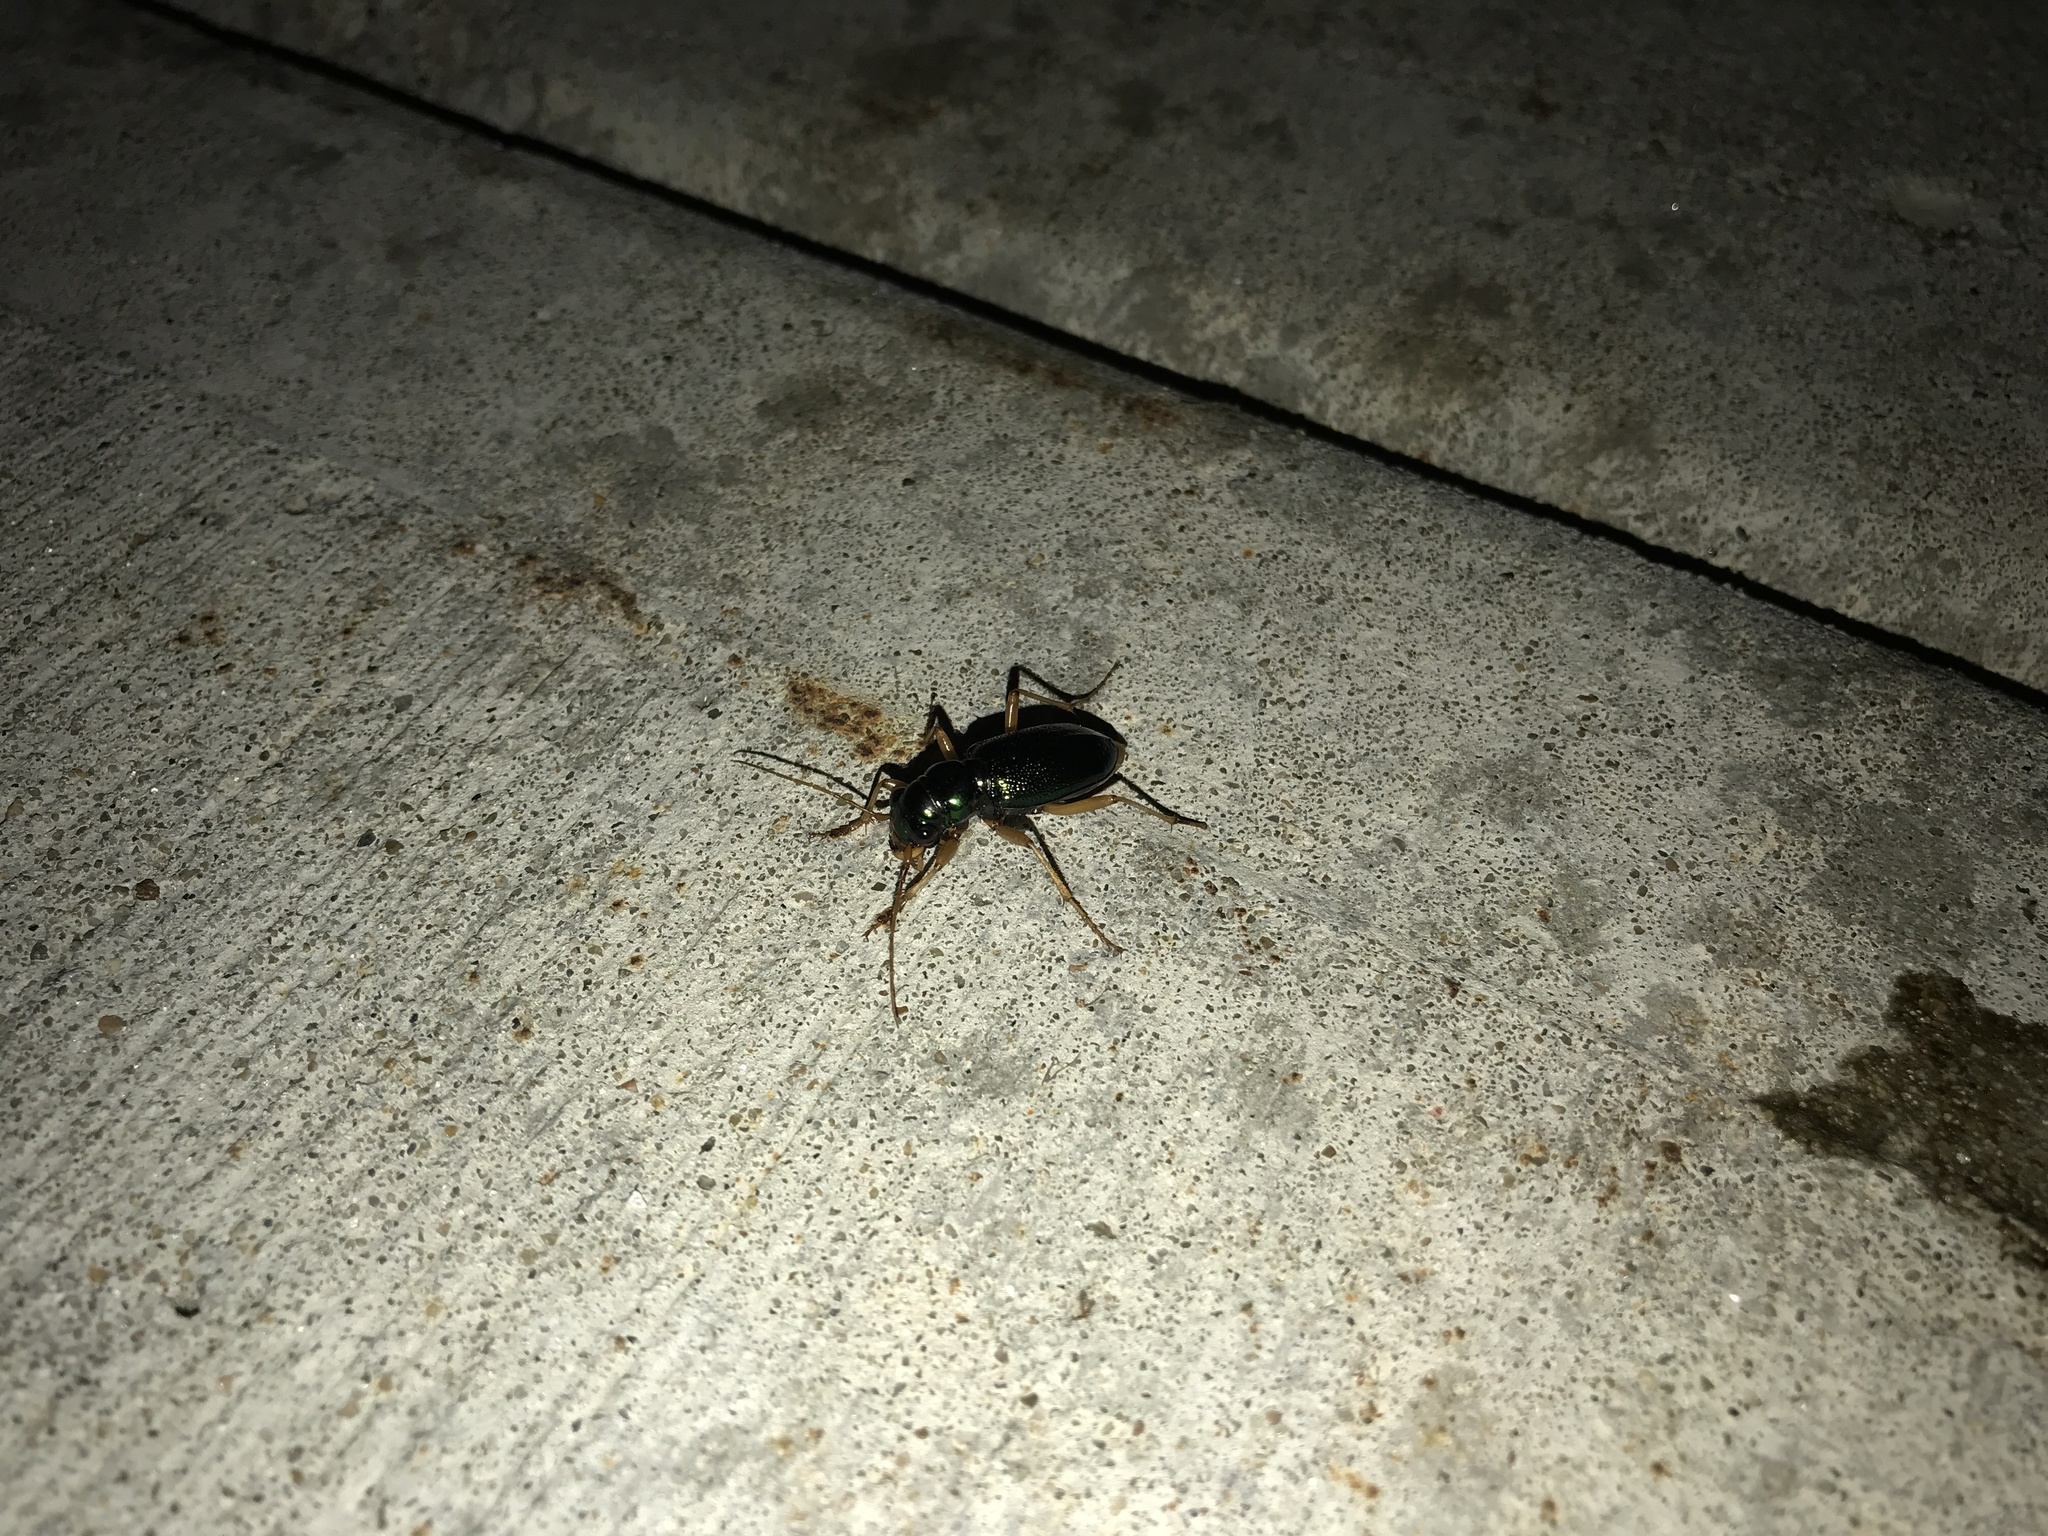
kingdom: Animalia
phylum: Arthropoda
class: Insecta
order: Coleoptera
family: Carabidae
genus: Tetracha
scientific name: Tetracha virginica
